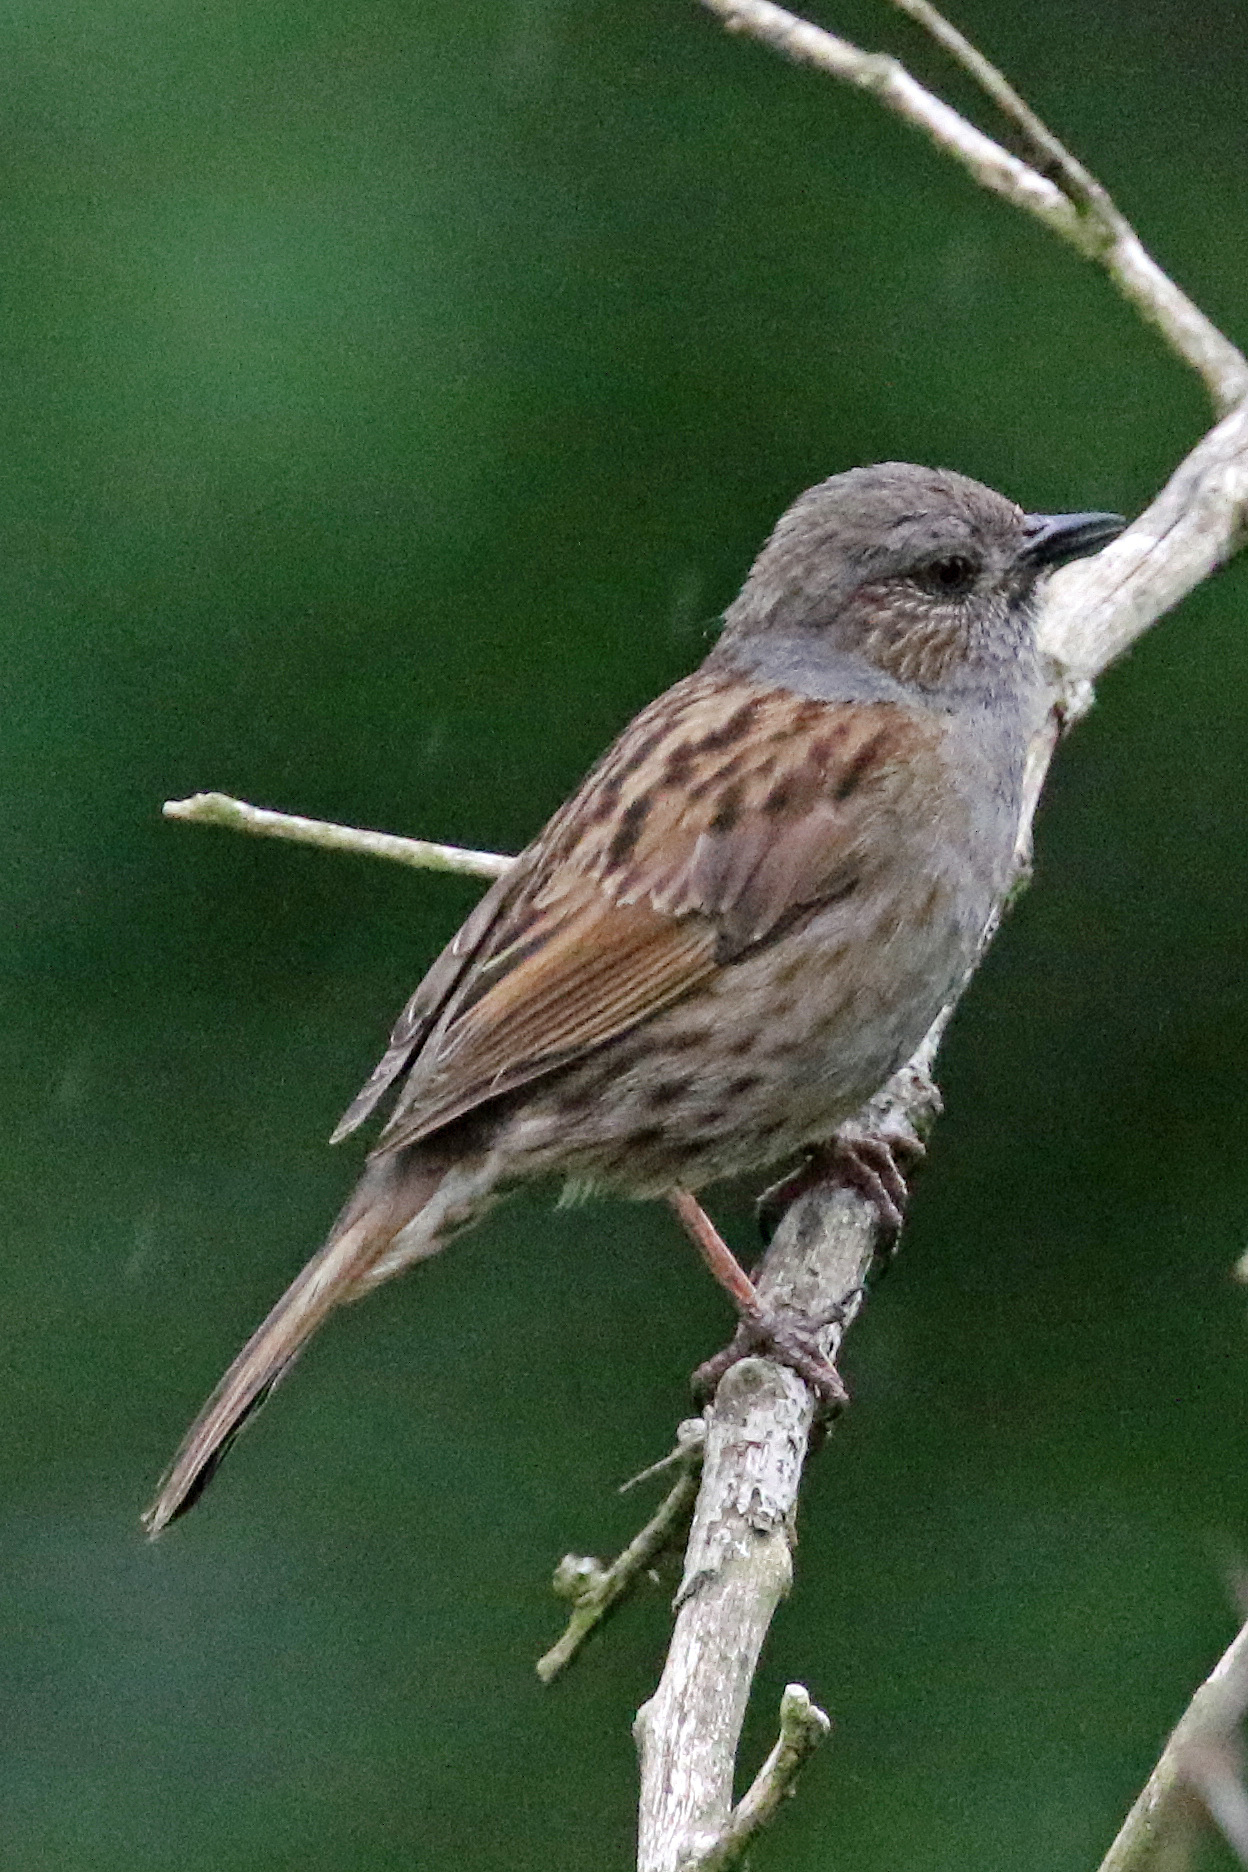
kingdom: Animalia
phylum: Chordata
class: Aves
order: Passeriformes
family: Prunellidae
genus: Prunella
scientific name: Prunella modularis
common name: Dunnock
